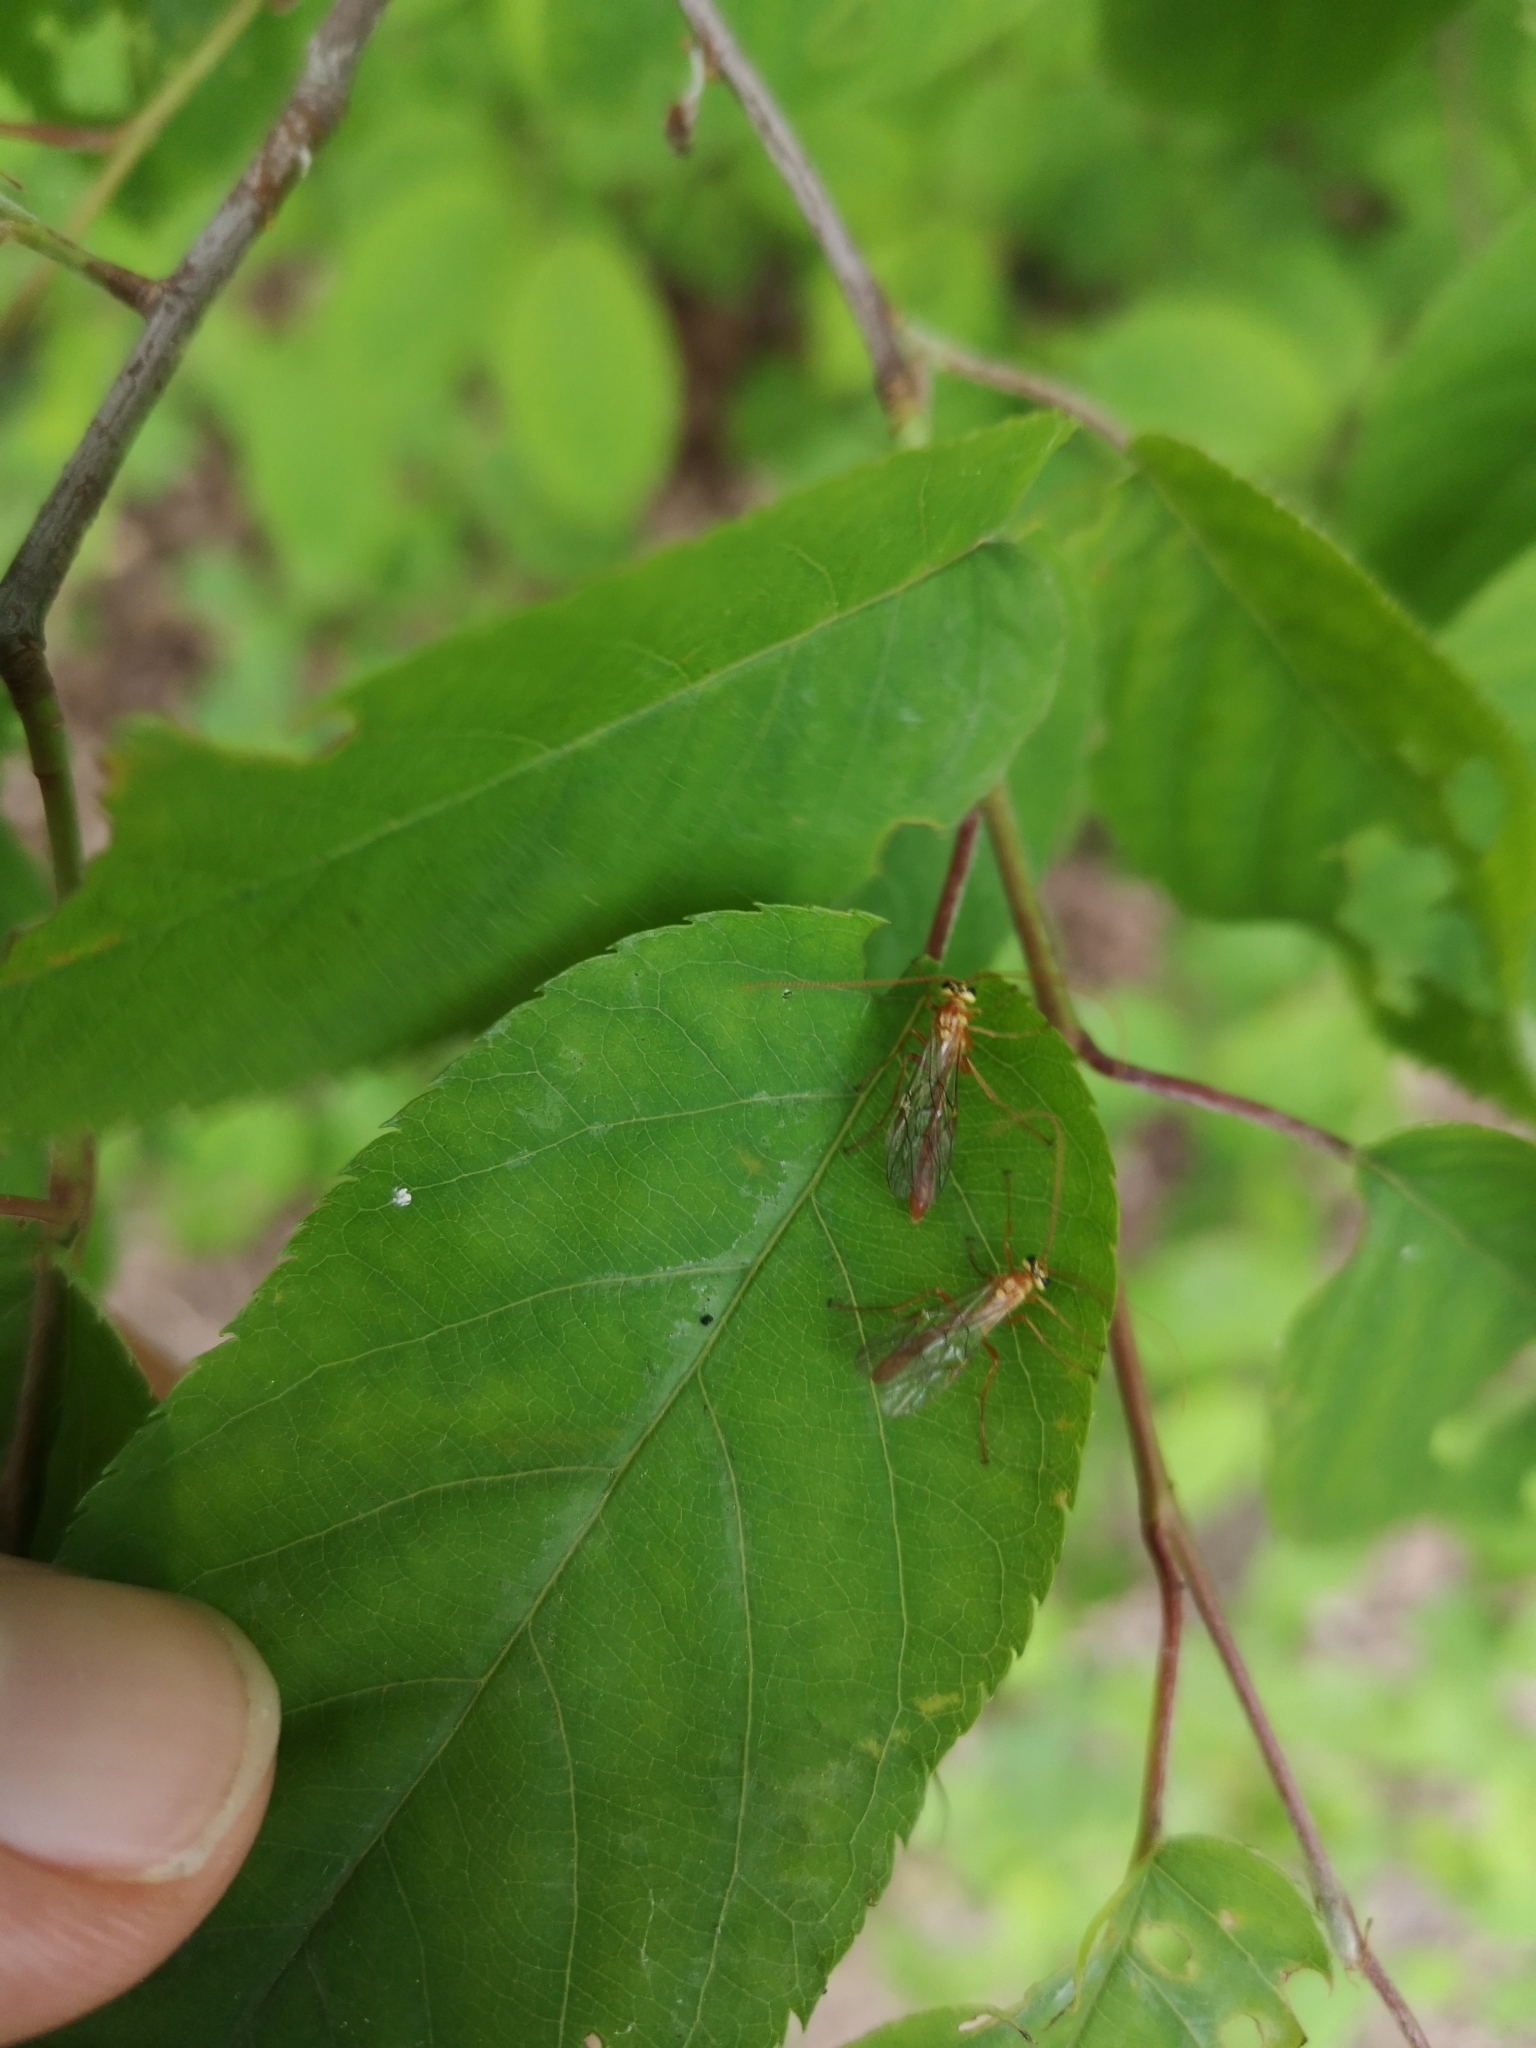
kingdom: Animalia
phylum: Arthropoda
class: Insecta
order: Hymenoptera
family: Ichneumonidae
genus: Ophion
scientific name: Ophion
